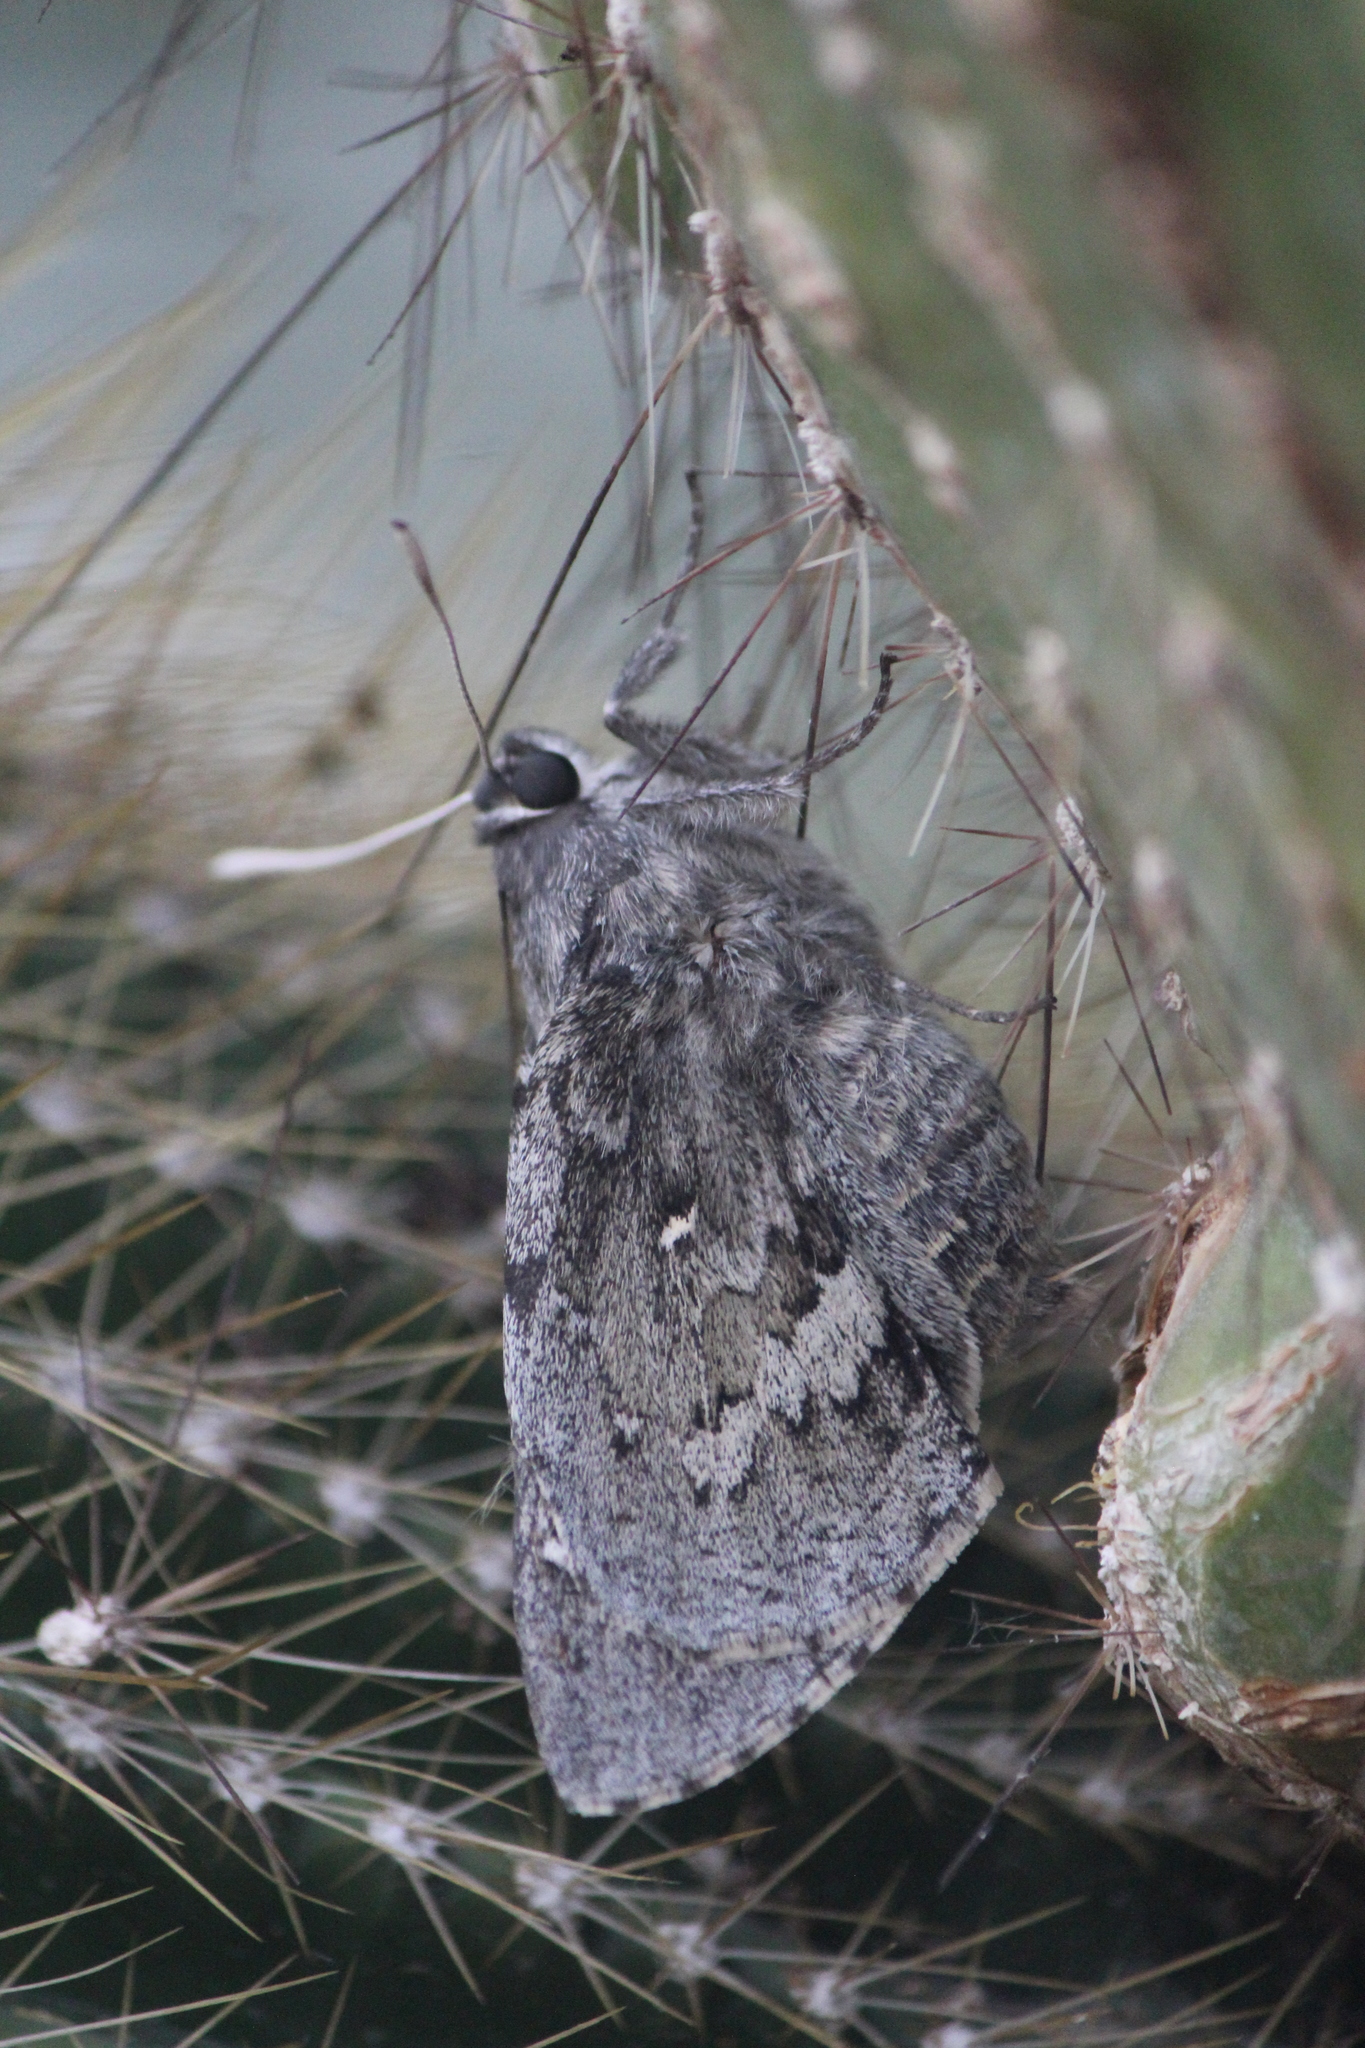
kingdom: Animalia
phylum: Arthropoda
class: Insecta
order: Lepidoptera
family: Hesperiidae
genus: Aegiale
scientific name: Aegiale hesperiaris
